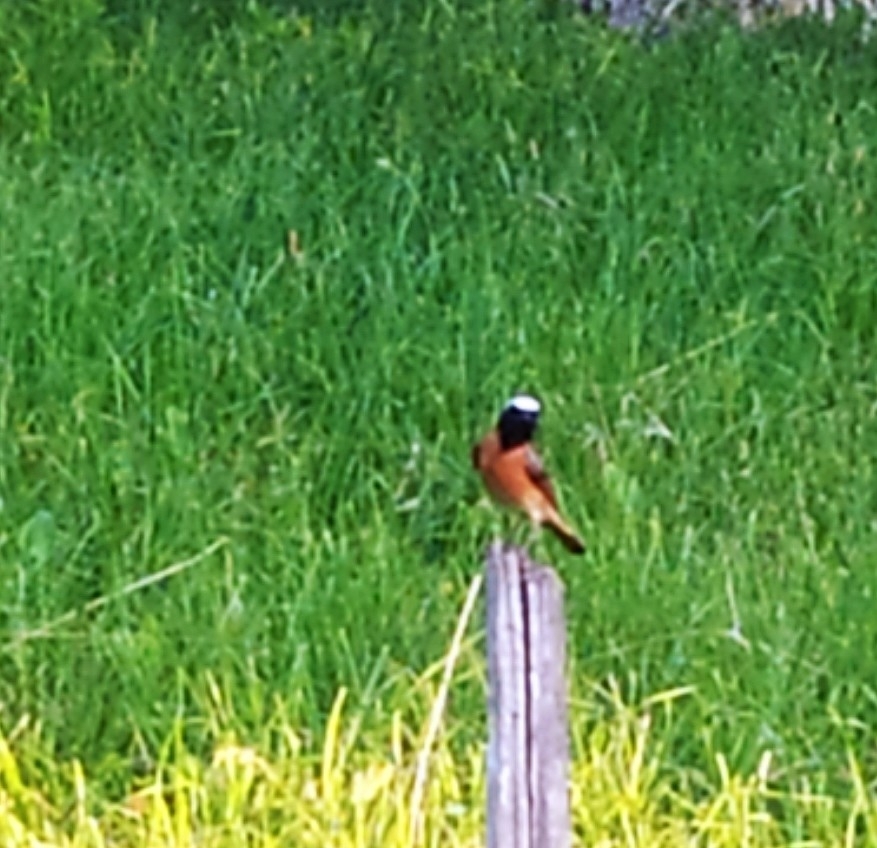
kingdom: Animalia
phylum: Chordata
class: Aves
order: Passeriformes
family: Muscicapidae
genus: Phoenicurus
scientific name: Phoenicurus phoenicurus
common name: Common redstart
